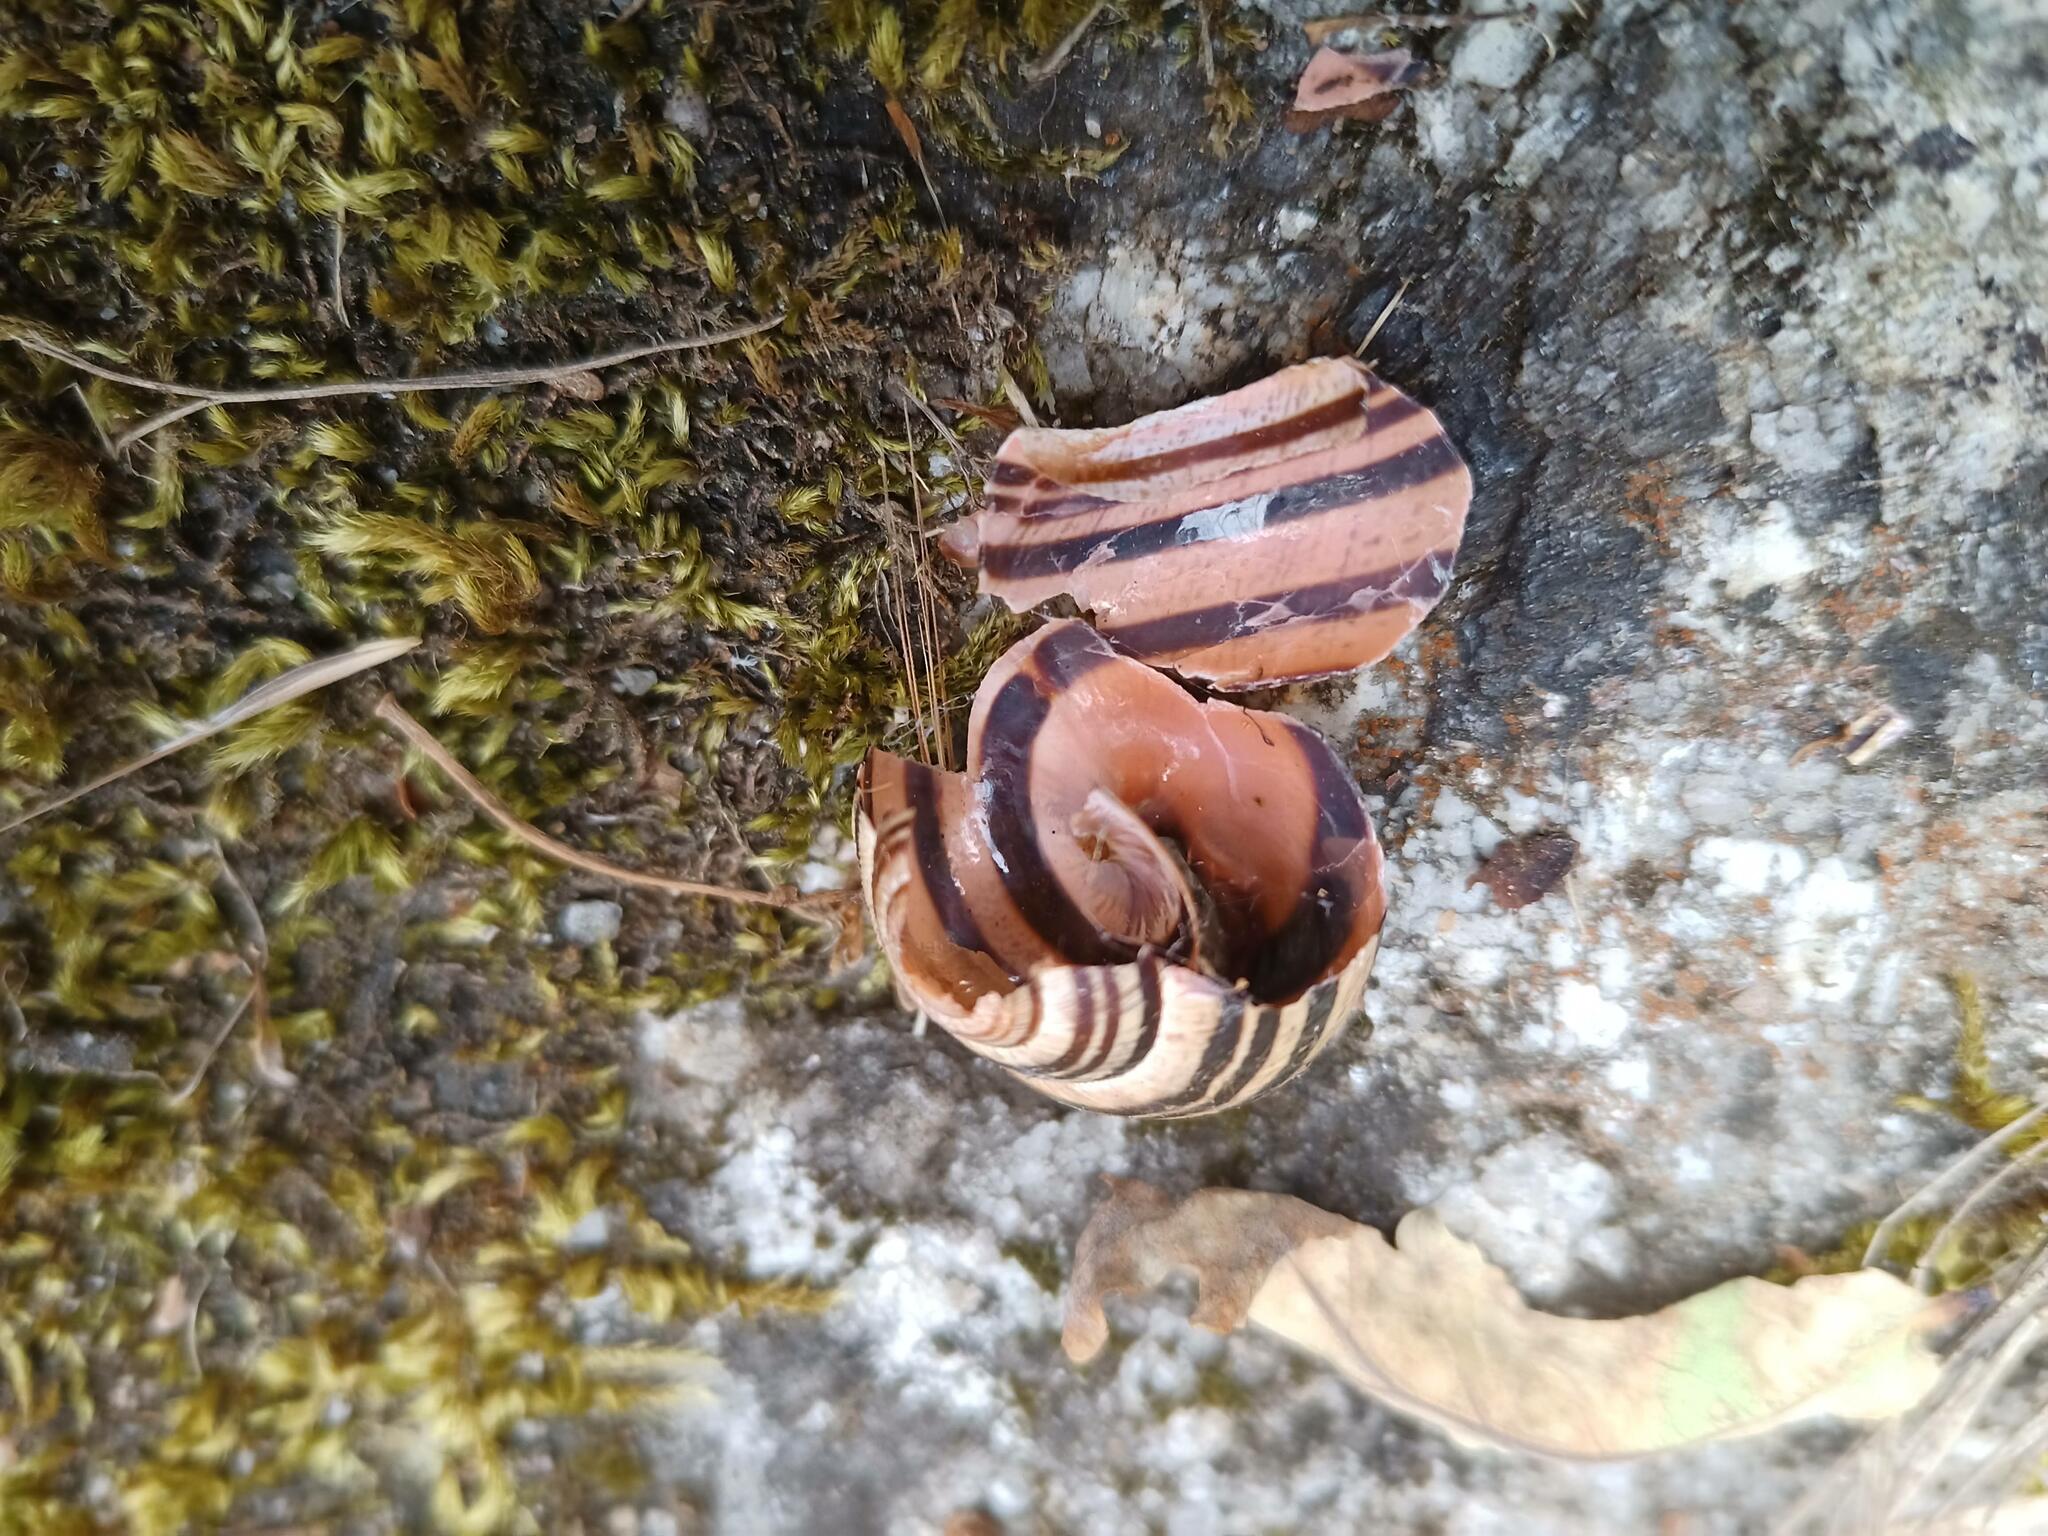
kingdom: Animalia
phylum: Mollusca
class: Gastropoda
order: Stylommatophora
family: Helicidae
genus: Cepaea
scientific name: Cepaea nemoralis
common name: Grovesnail
